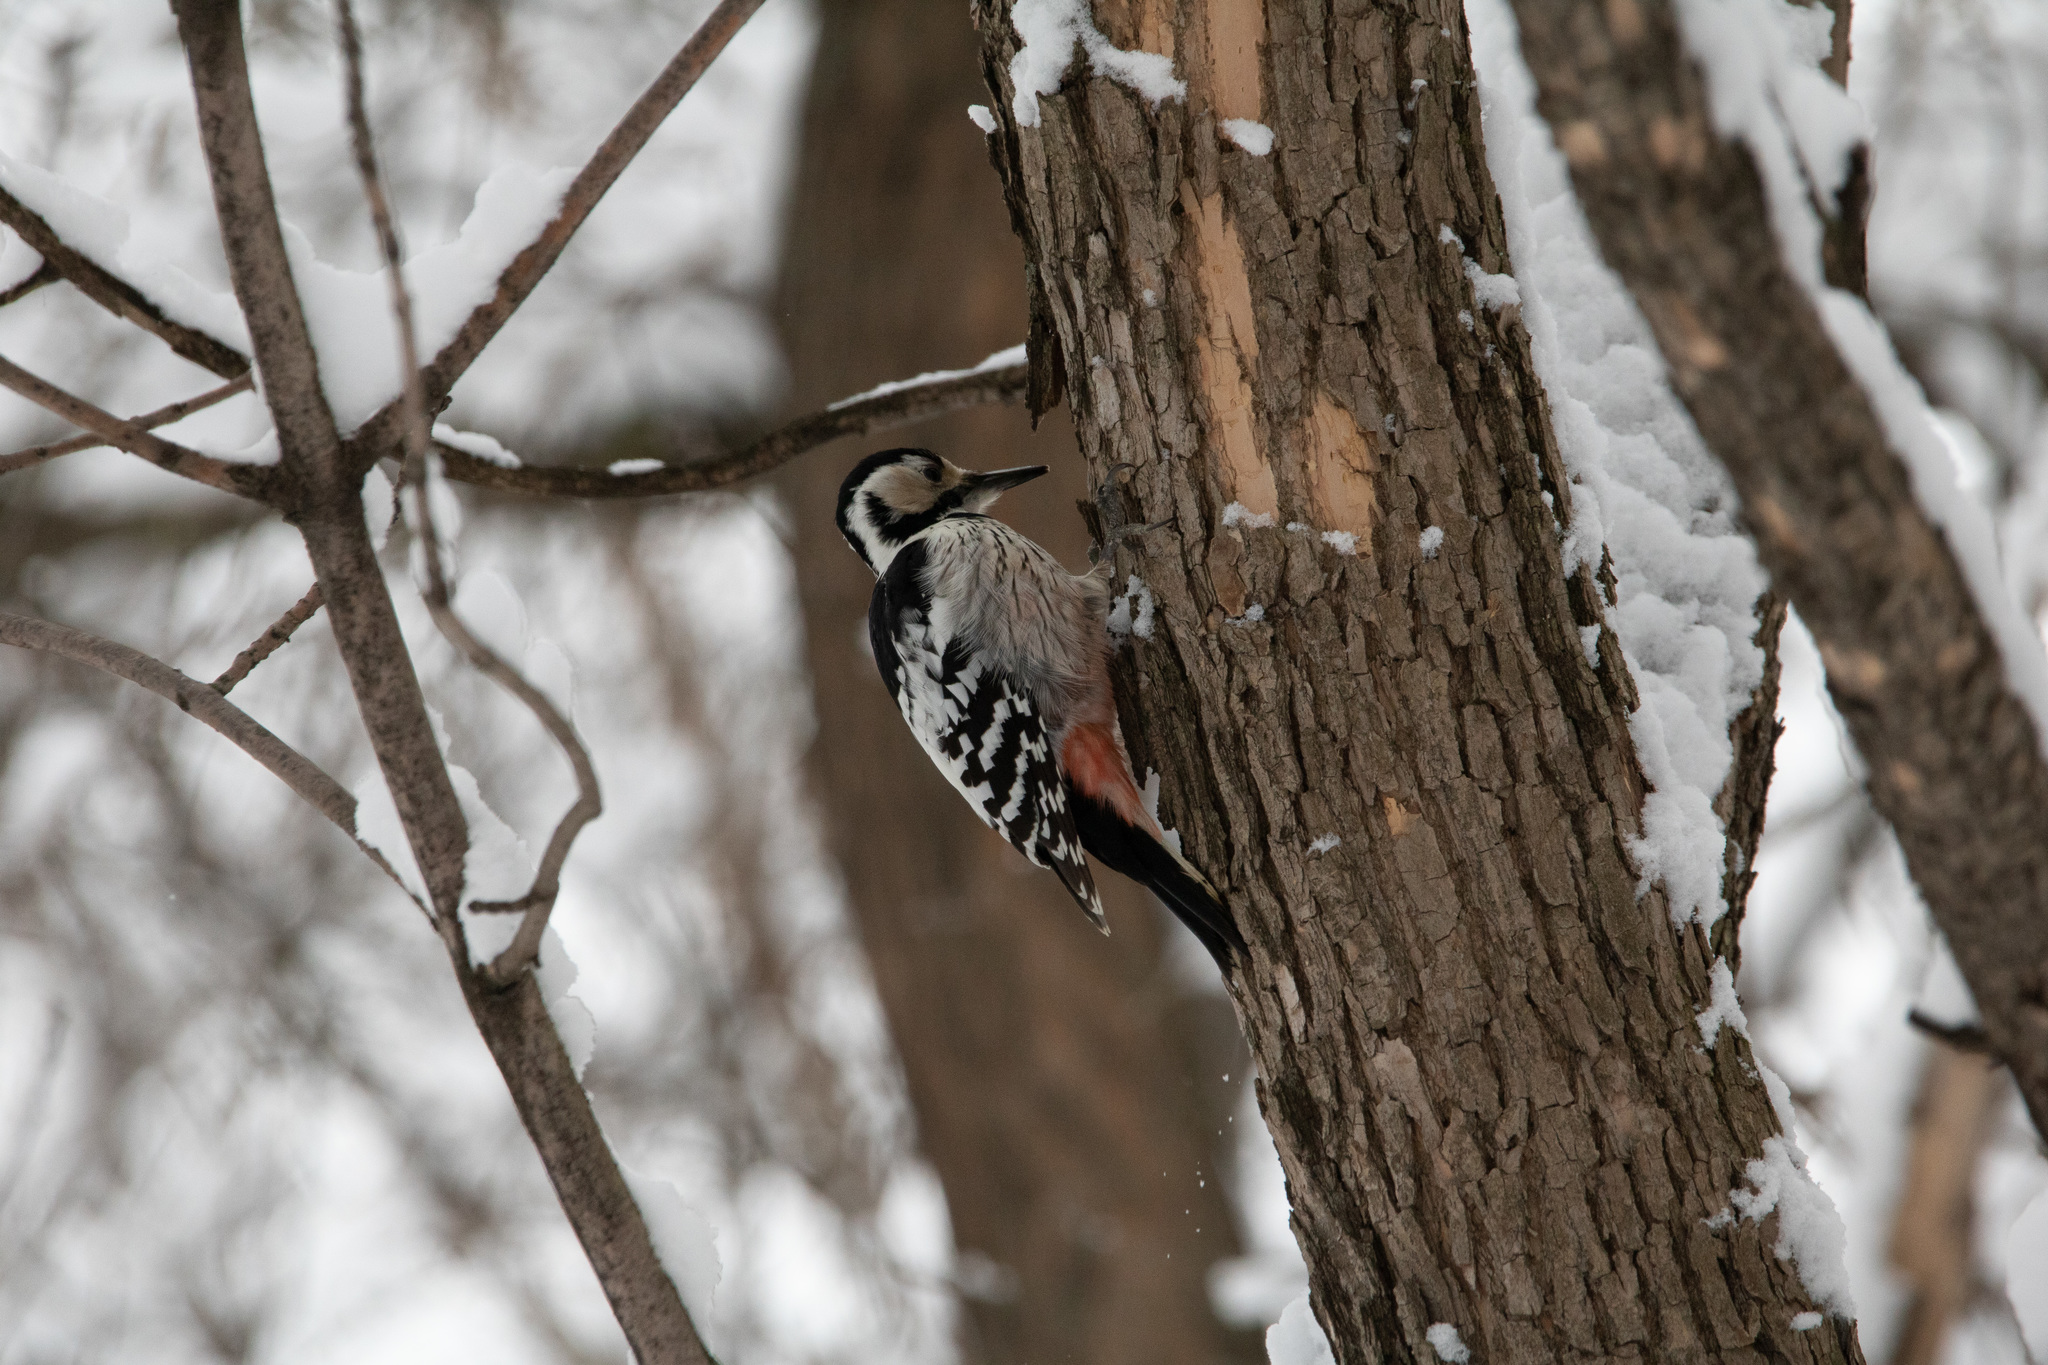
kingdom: Animalia
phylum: Chordata
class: Aves
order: Piciformes
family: Picidae
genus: Dendrocopos
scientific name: Dendrocopos leucotos
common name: White-backed woodpecker
